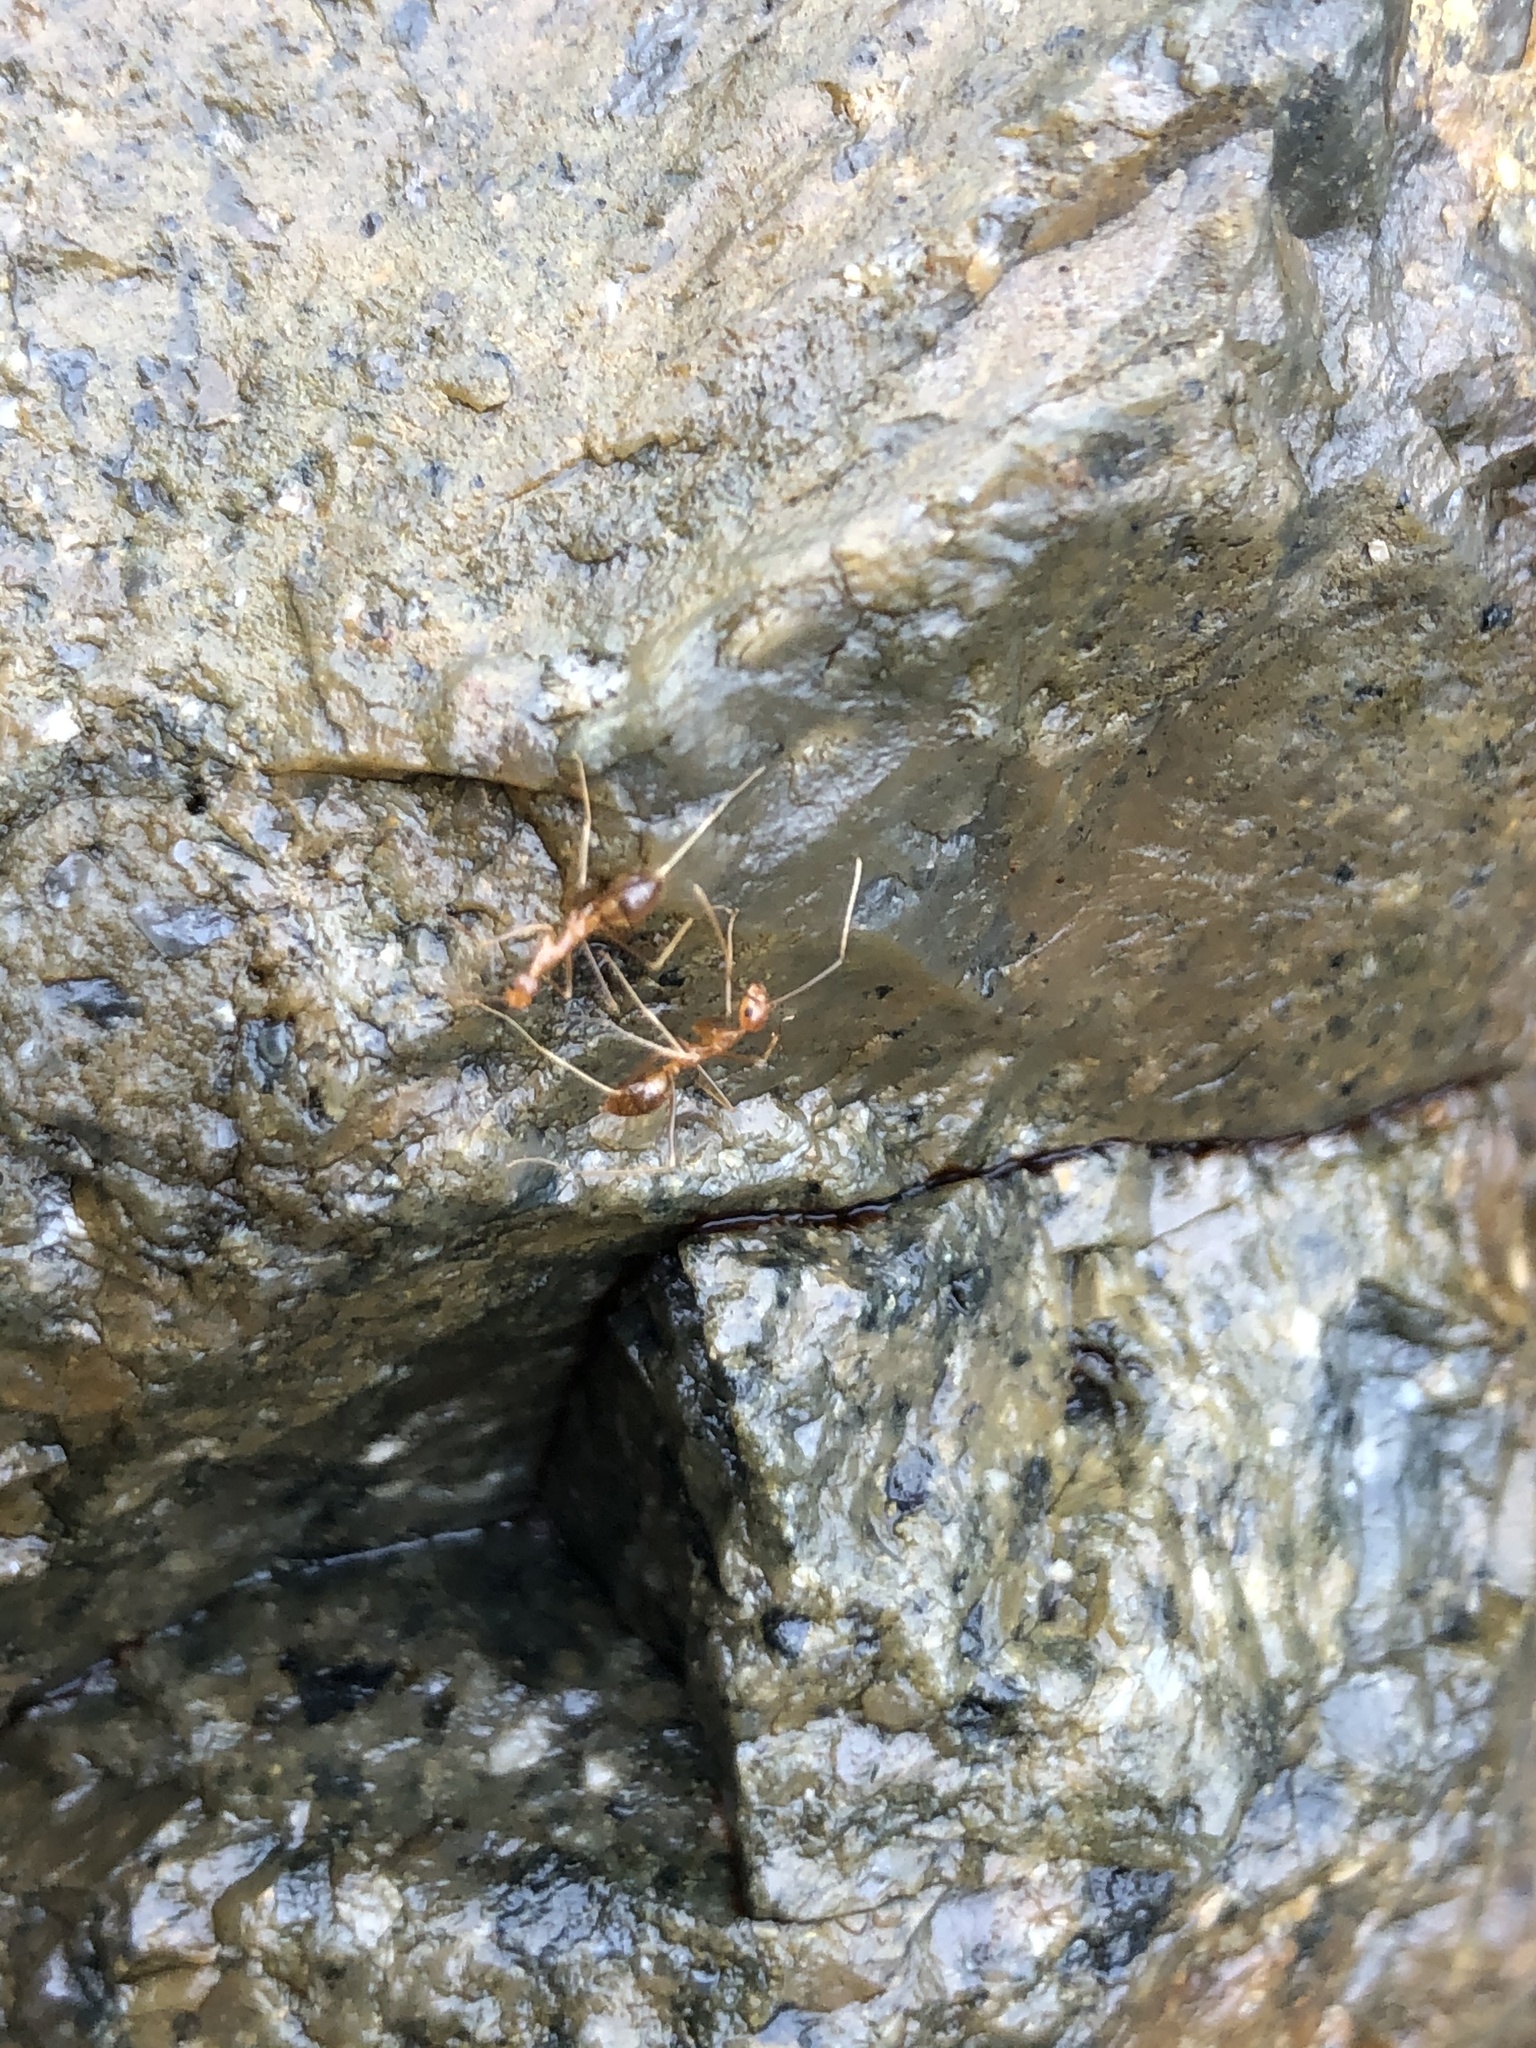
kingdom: Animalia
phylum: Arthropoda
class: Insecta
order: Hymenoptera
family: Formicidae
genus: Oecophylla
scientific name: Oecophylla smaragdina
